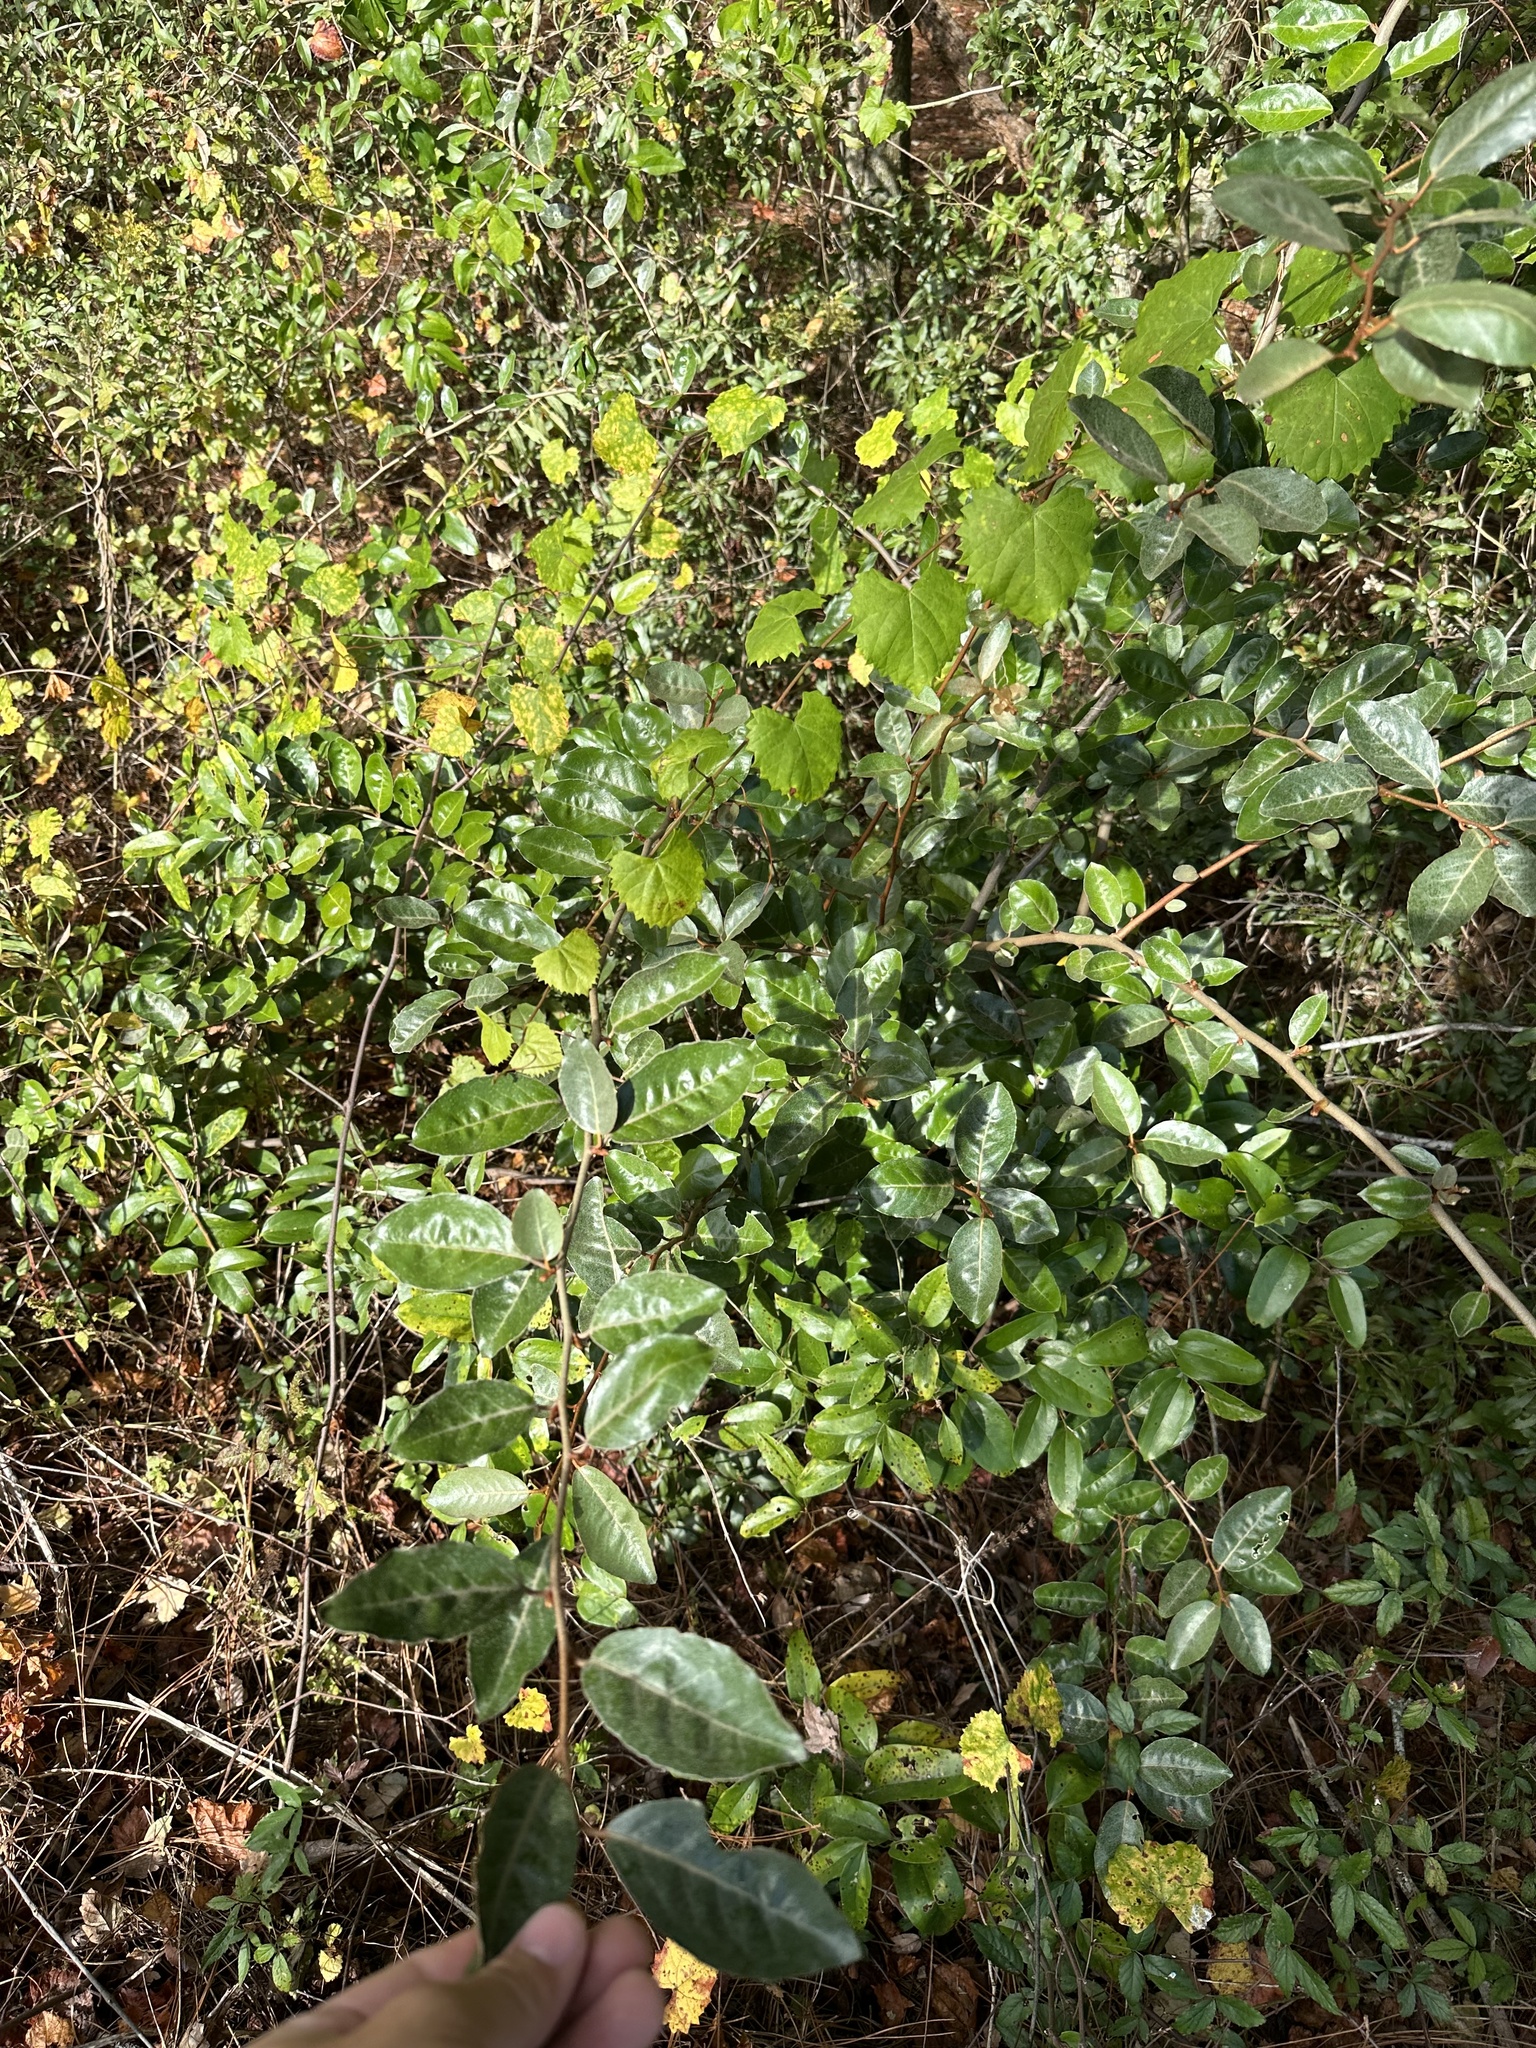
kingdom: Plantae
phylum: Tracheophyta
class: Magnoliopsida
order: Rosales
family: Elaeagnaceae
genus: Elaeagnus
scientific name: Elaeagnus pungens
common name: Spiny oleaster
